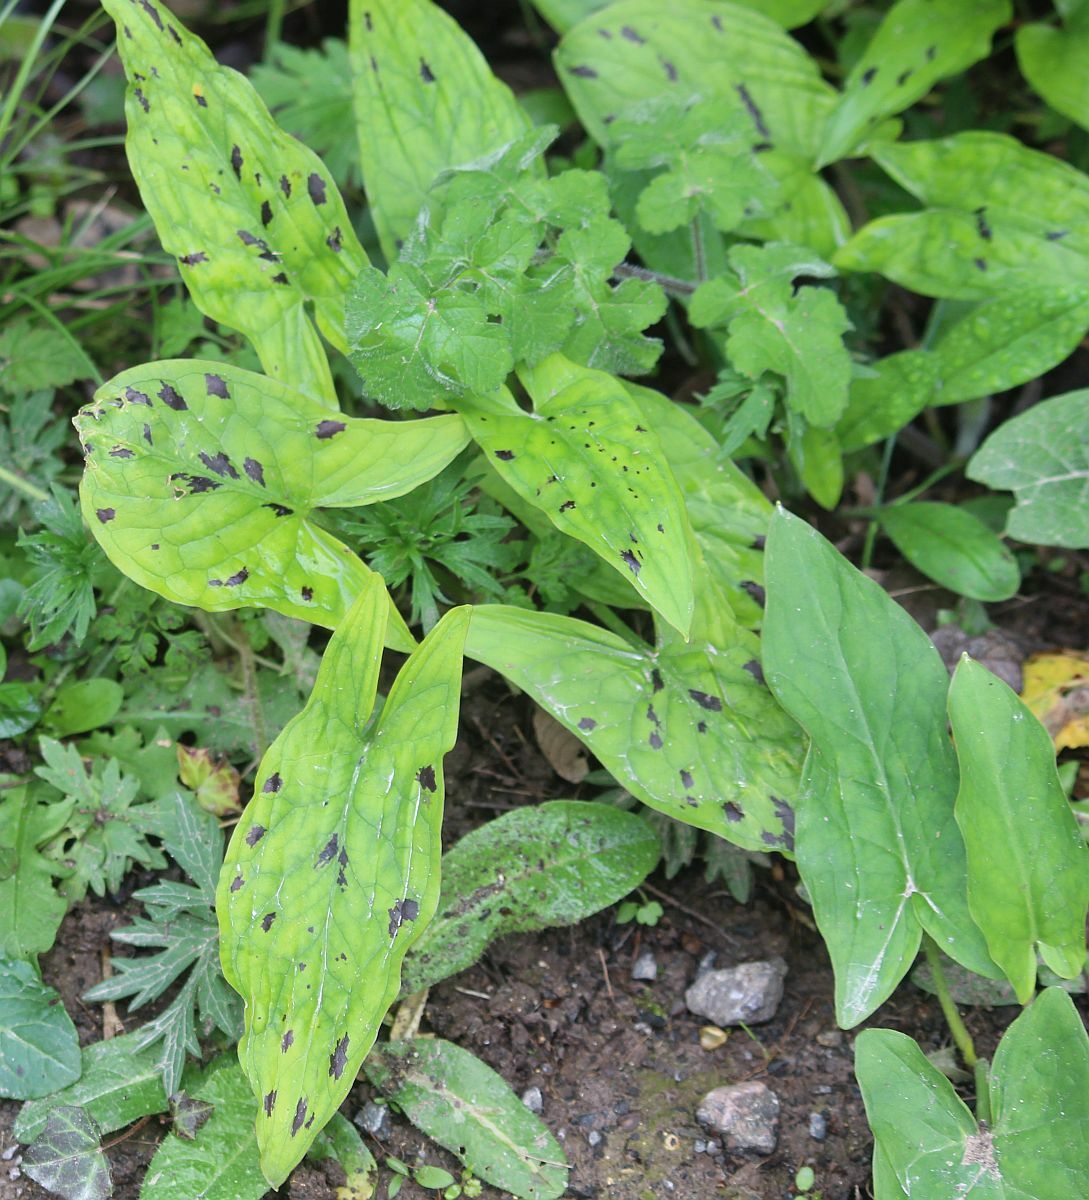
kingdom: Plantae
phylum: Tracheophyta
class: Liliopsida
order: Alismatales
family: Araceae
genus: Arum
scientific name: Arum maculatum
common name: Lords-and-ladies
